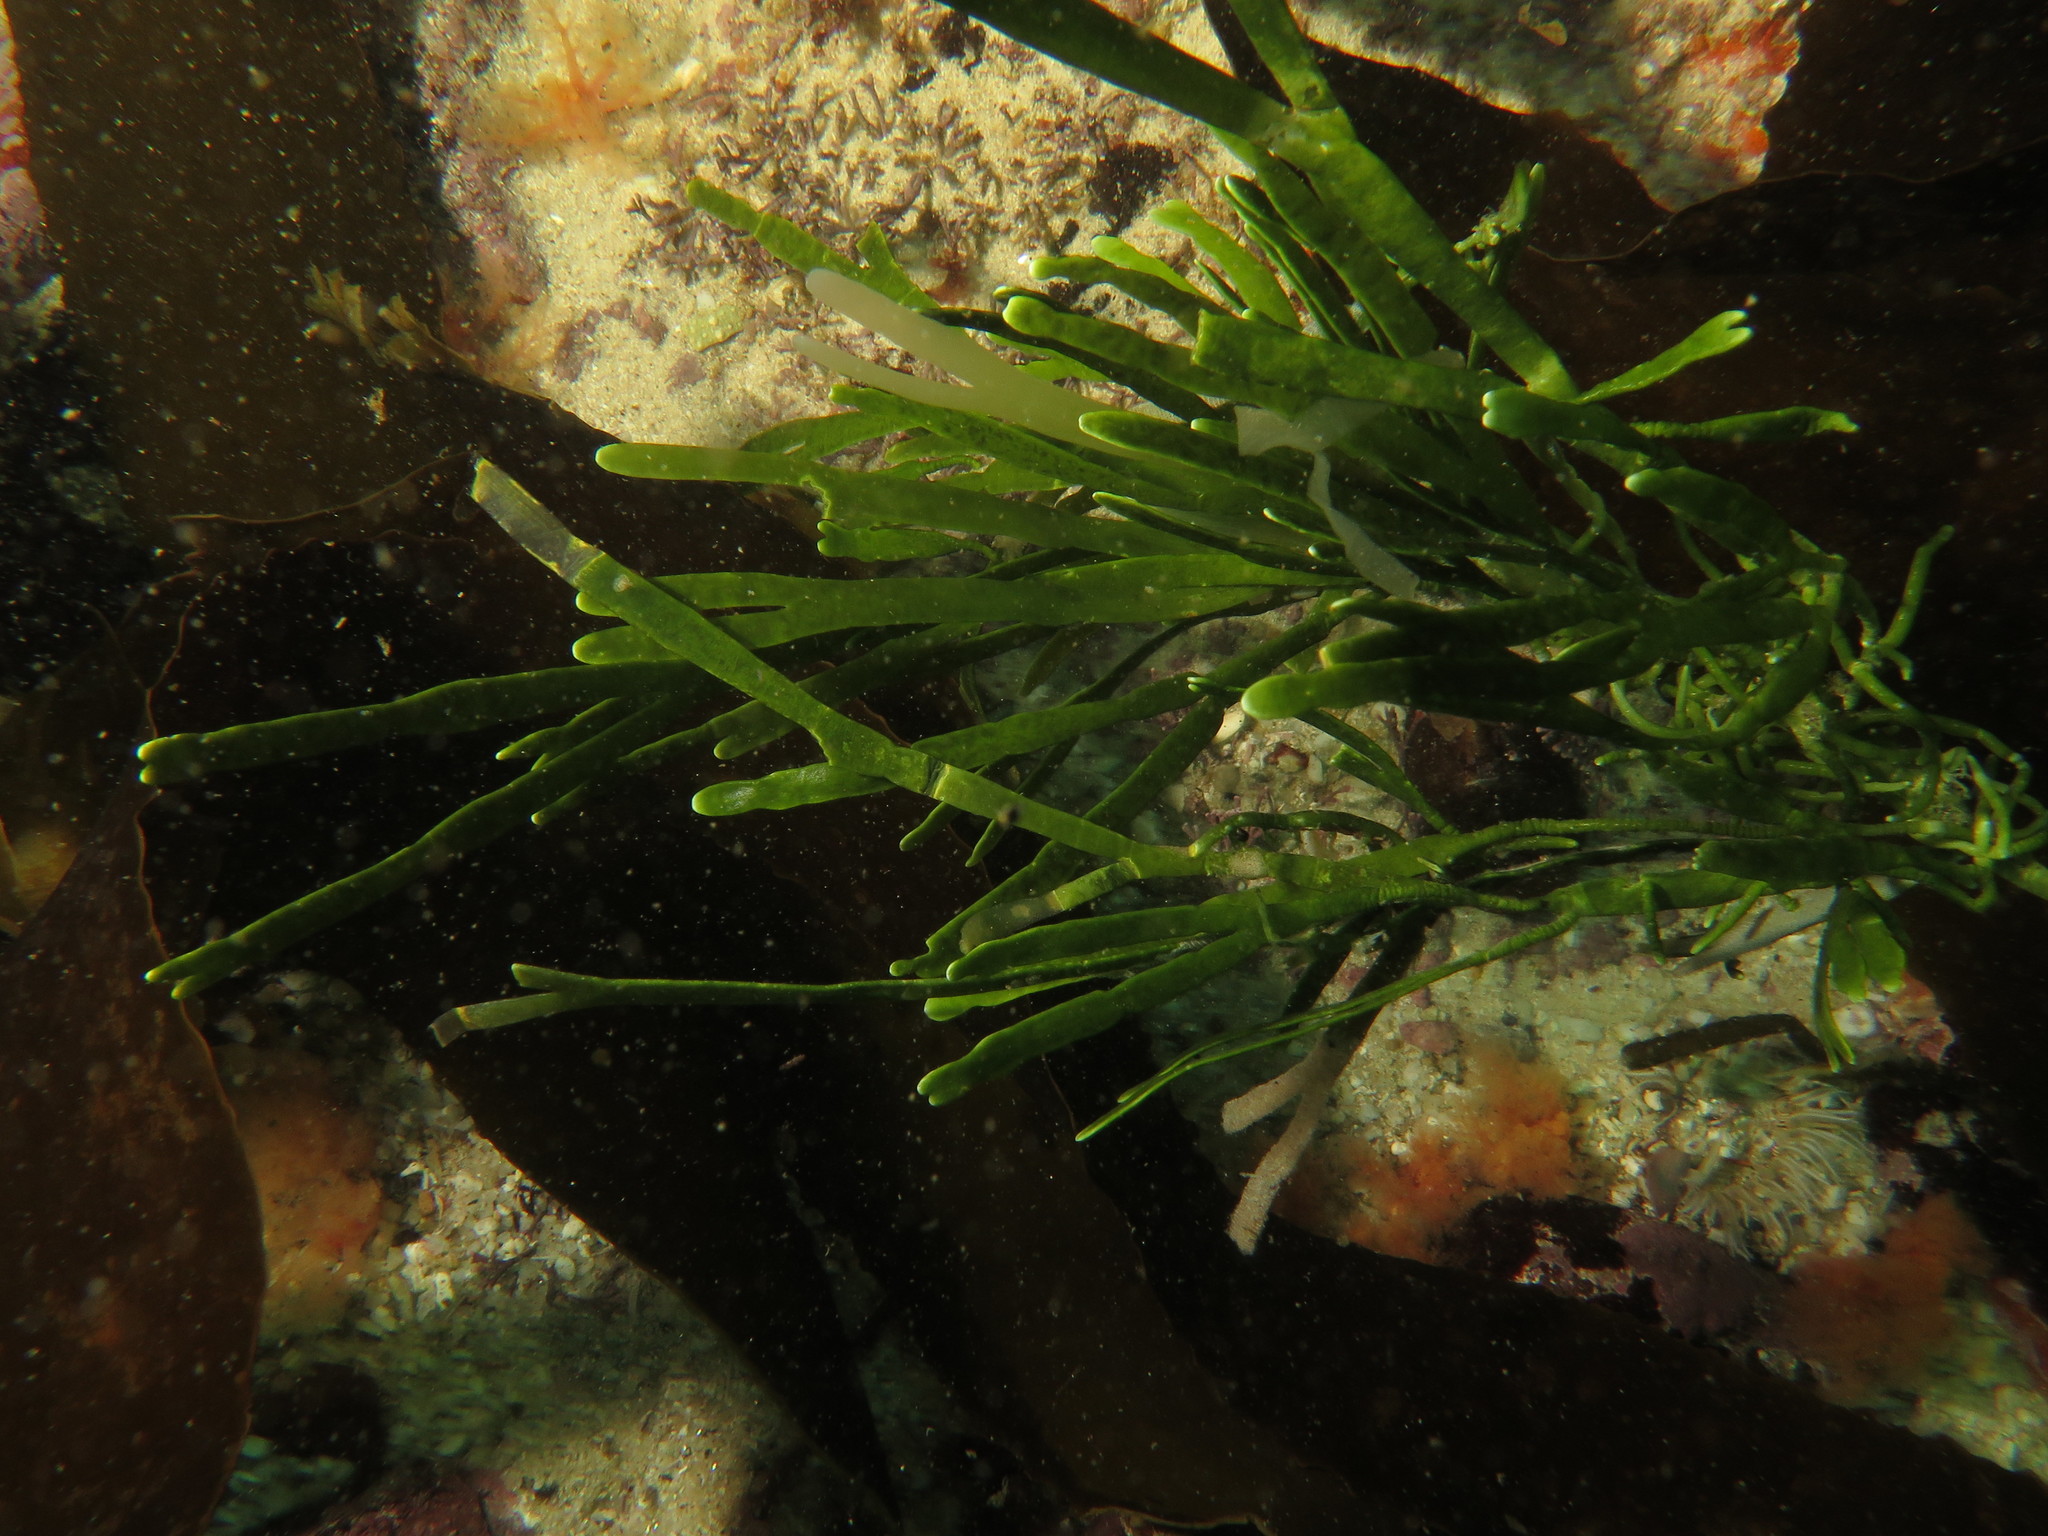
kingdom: Plantae
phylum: Chlorophyta
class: Ulvophyceae
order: Bryopsidales
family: Caulerpaceae
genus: Caulerpa
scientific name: Caulerpa filiformis
